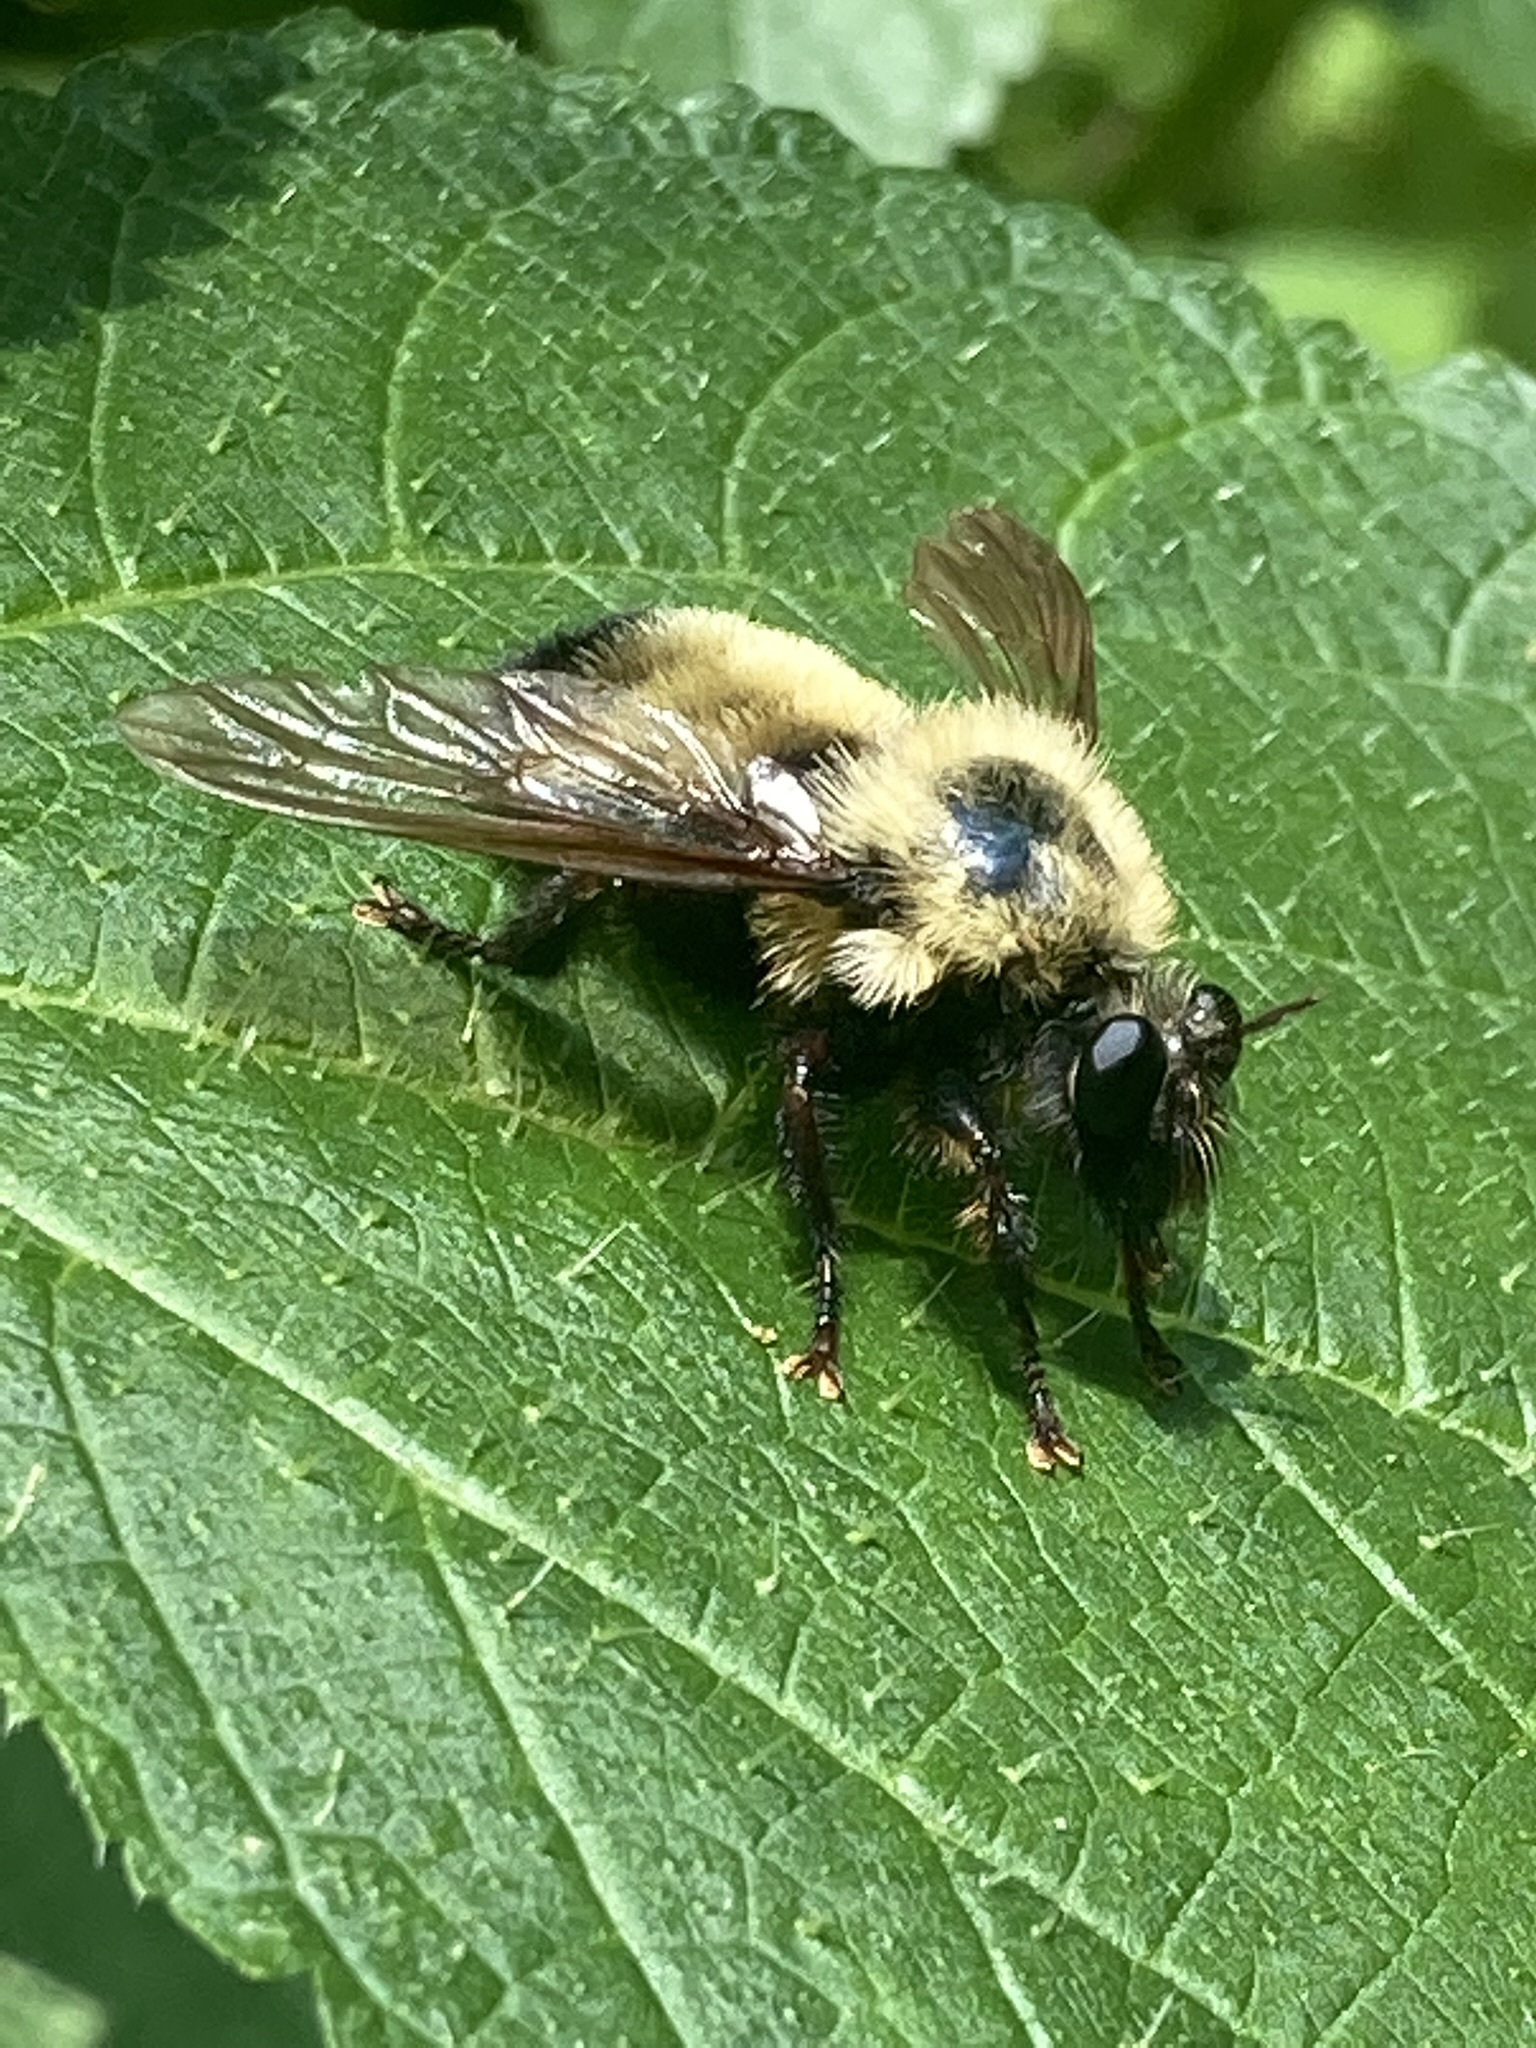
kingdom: Animalia
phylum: Arthropoda
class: Insecta
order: Diptera
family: Asilidae
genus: Laphria
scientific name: Laphria thoracica
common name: Bumble bee mimic robber fly
